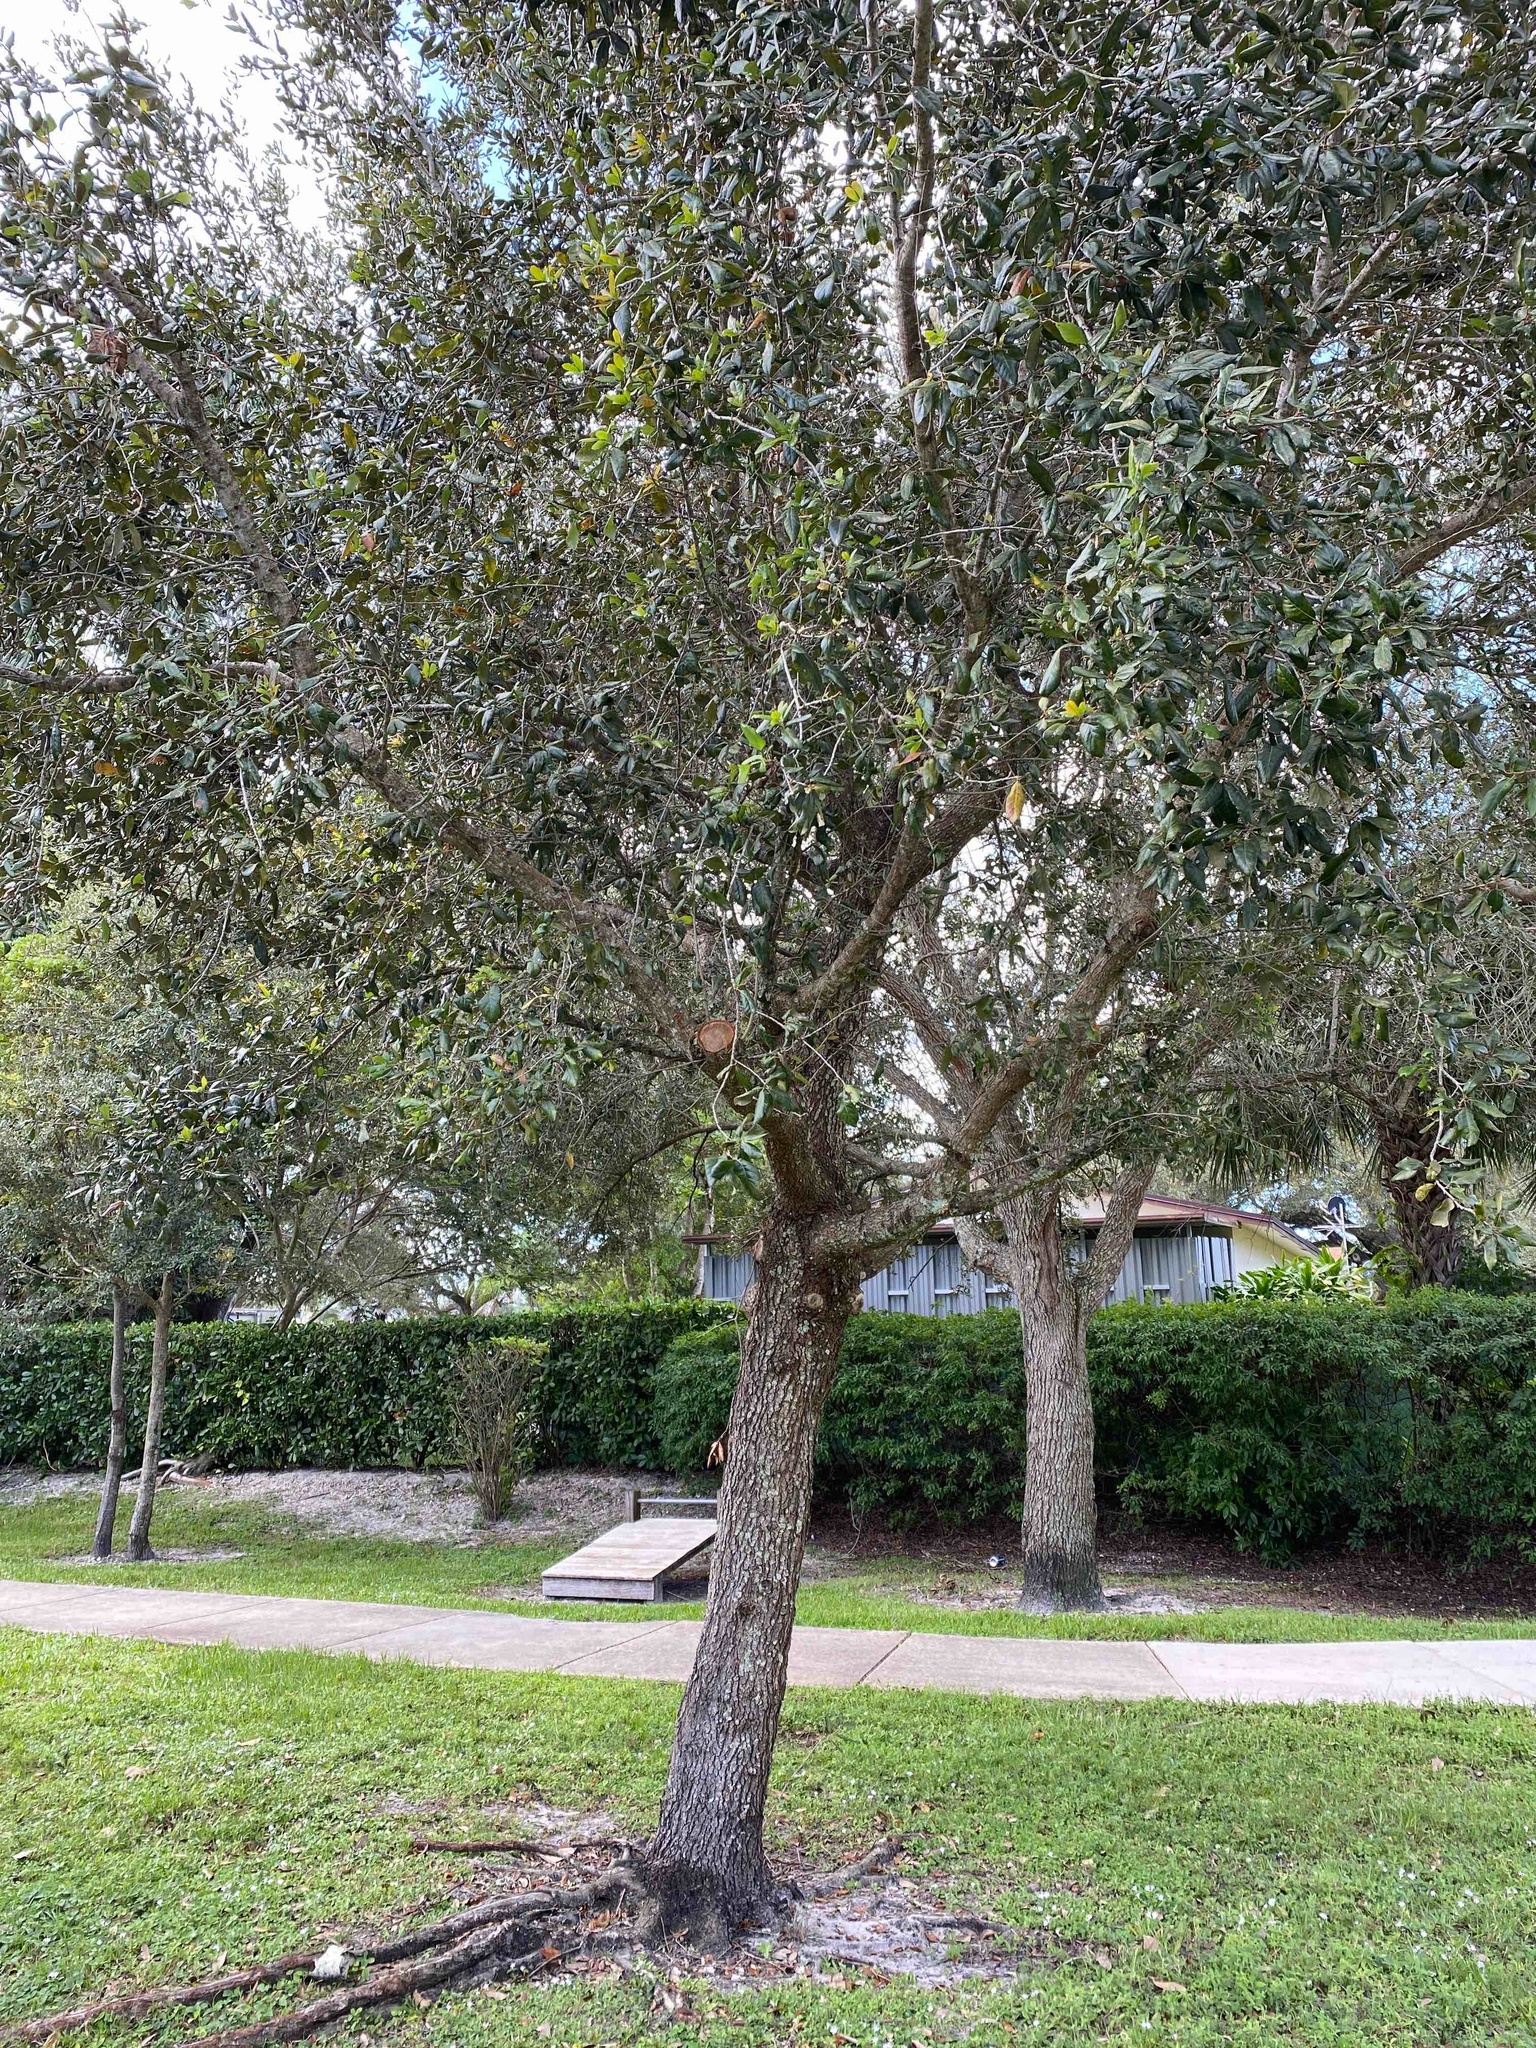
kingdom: Plantae
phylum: Tracheophyta
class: Magnoliopsida
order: Fagales
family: Fagaceae
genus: Quercus
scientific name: Quercus virginiana
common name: Southern live oak
